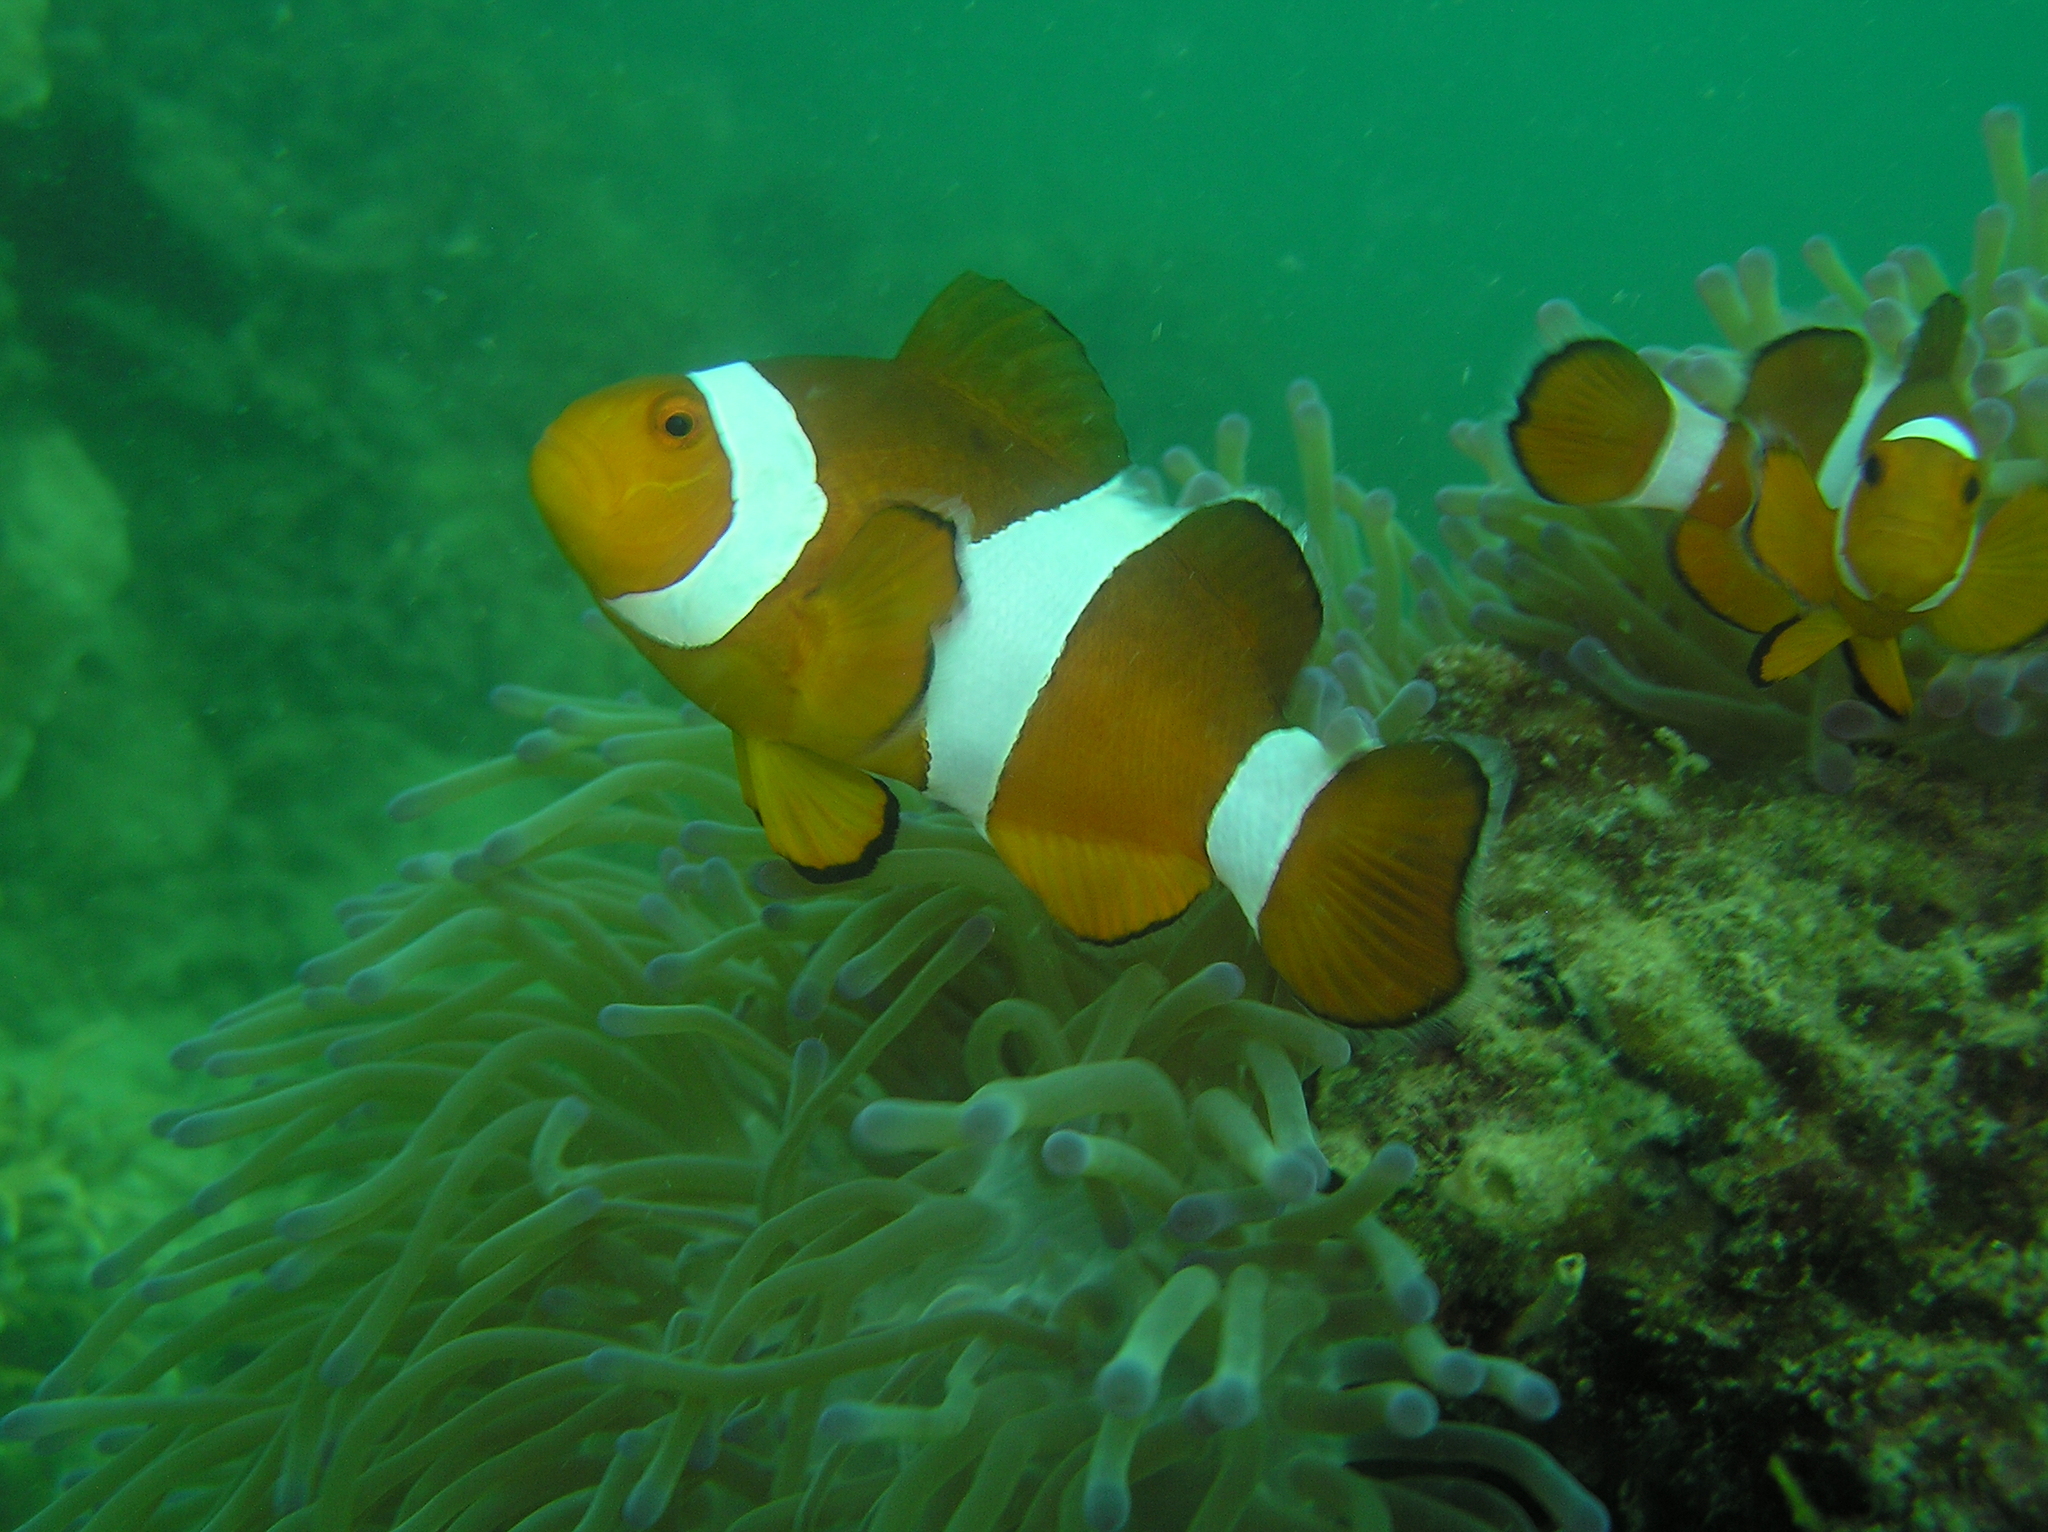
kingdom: Animalia
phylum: Chordata
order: Perciformes
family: Pomacentridae
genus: Amphiprion
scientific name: Amphiprion ocellaris
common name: Clown anemonefish
